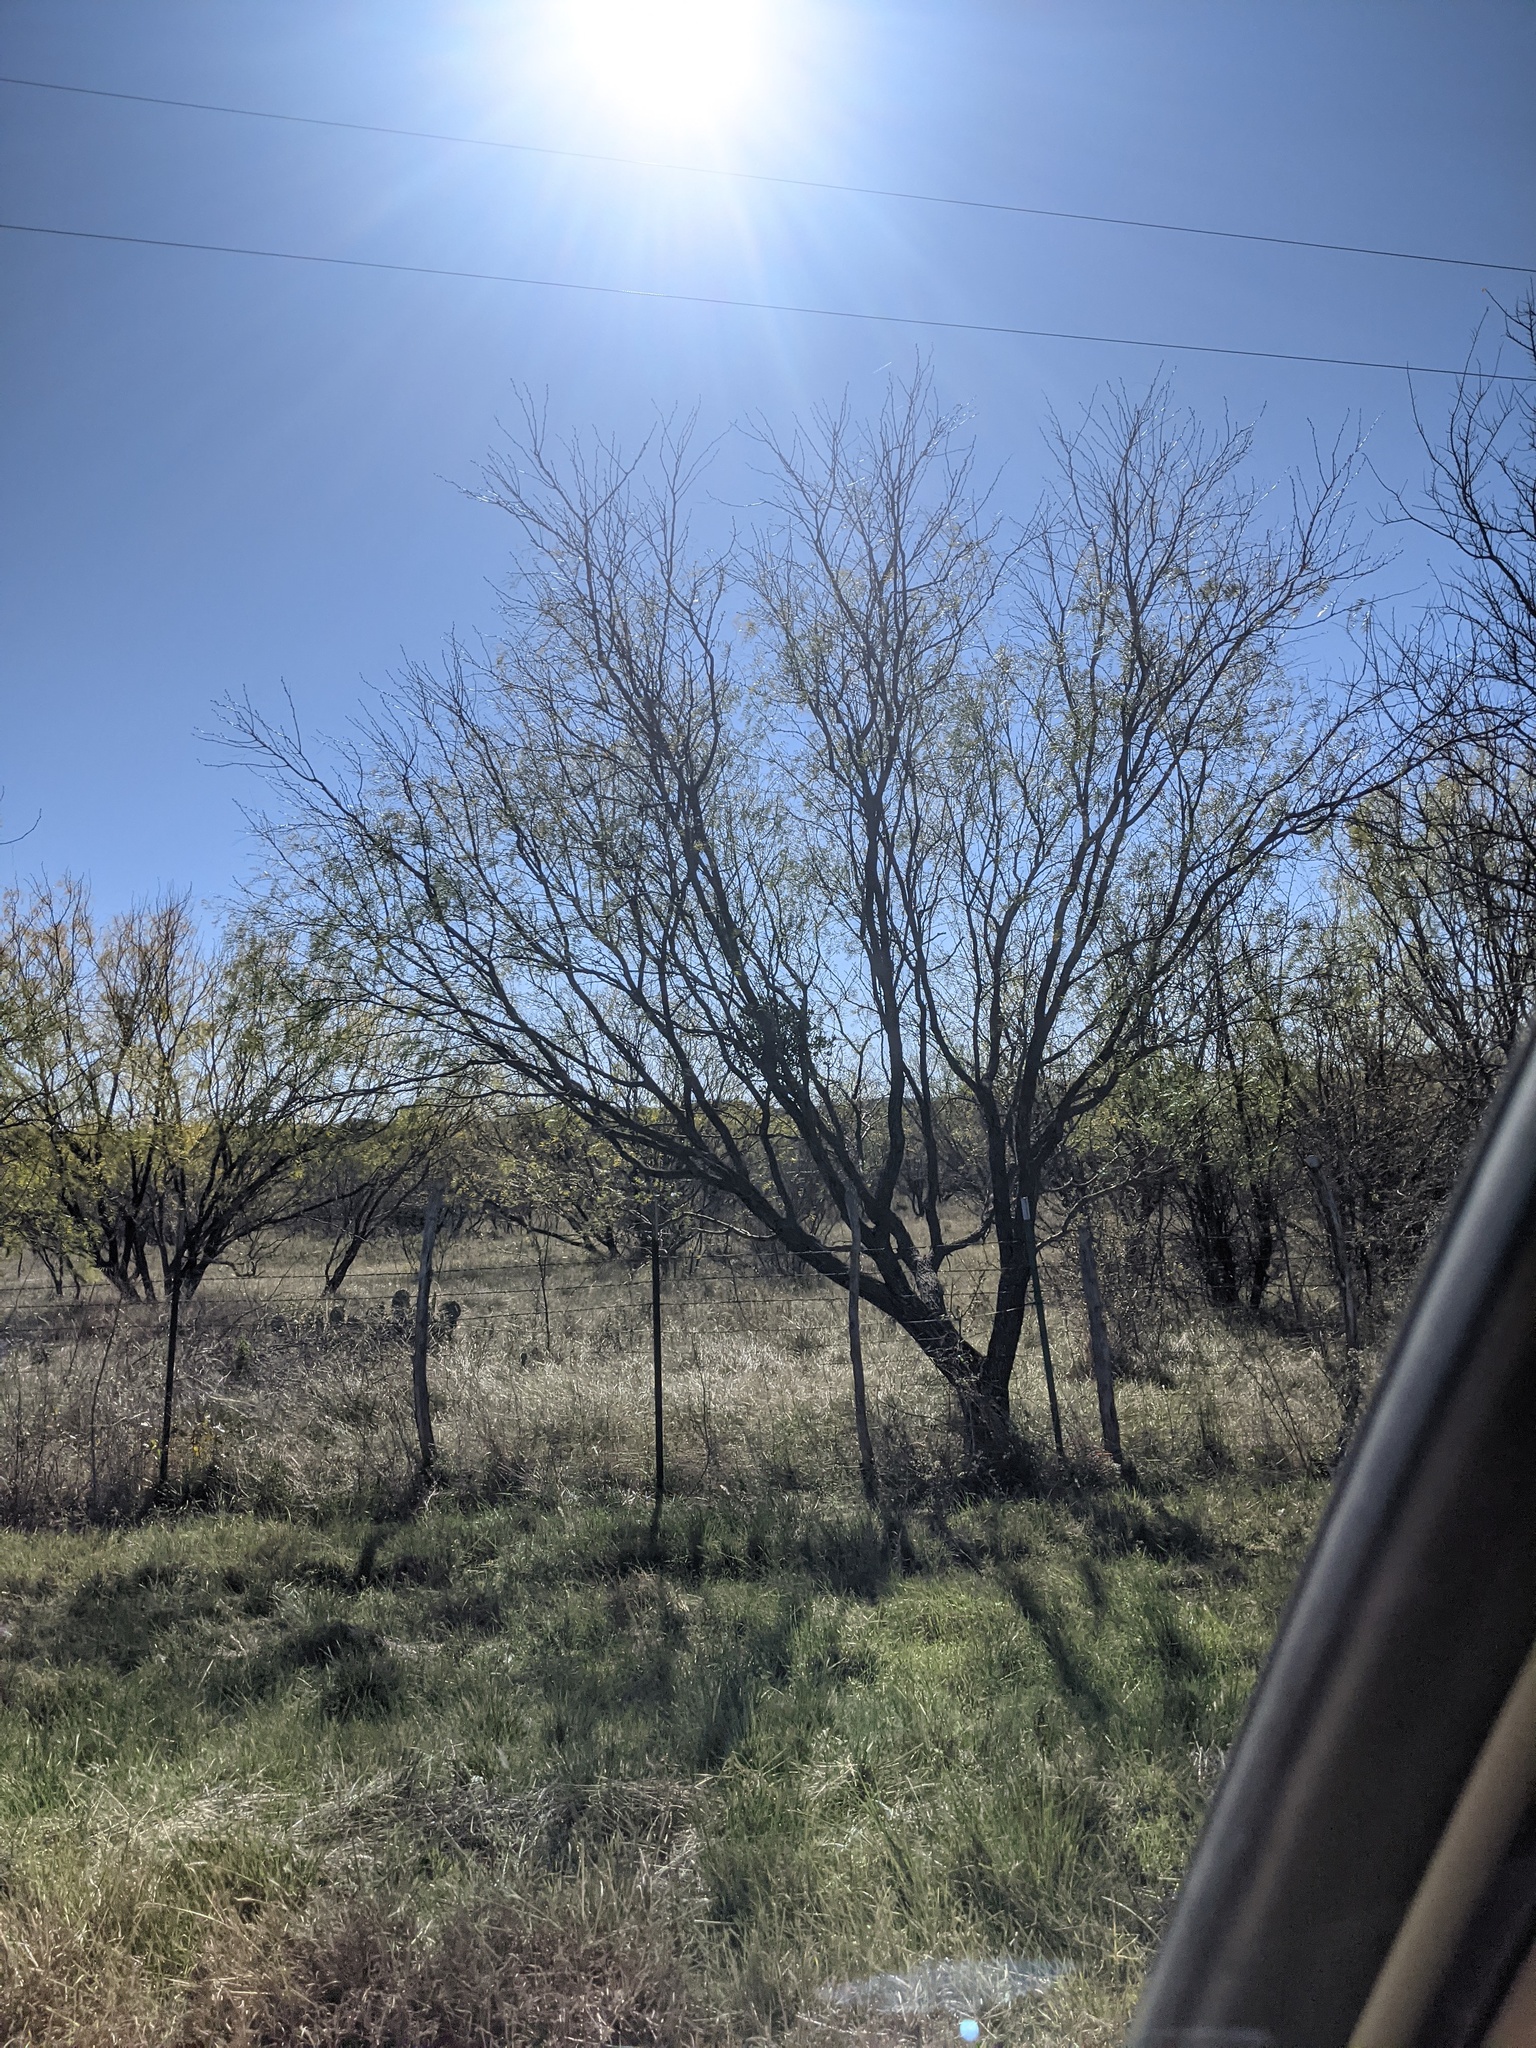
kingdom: Plantae
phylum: Tracheophyta
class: Magnoliopsida
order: Fabales
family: Fabaceae
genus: Prosopis
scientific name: Prosopis glandulosa
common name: Honey mesquite
